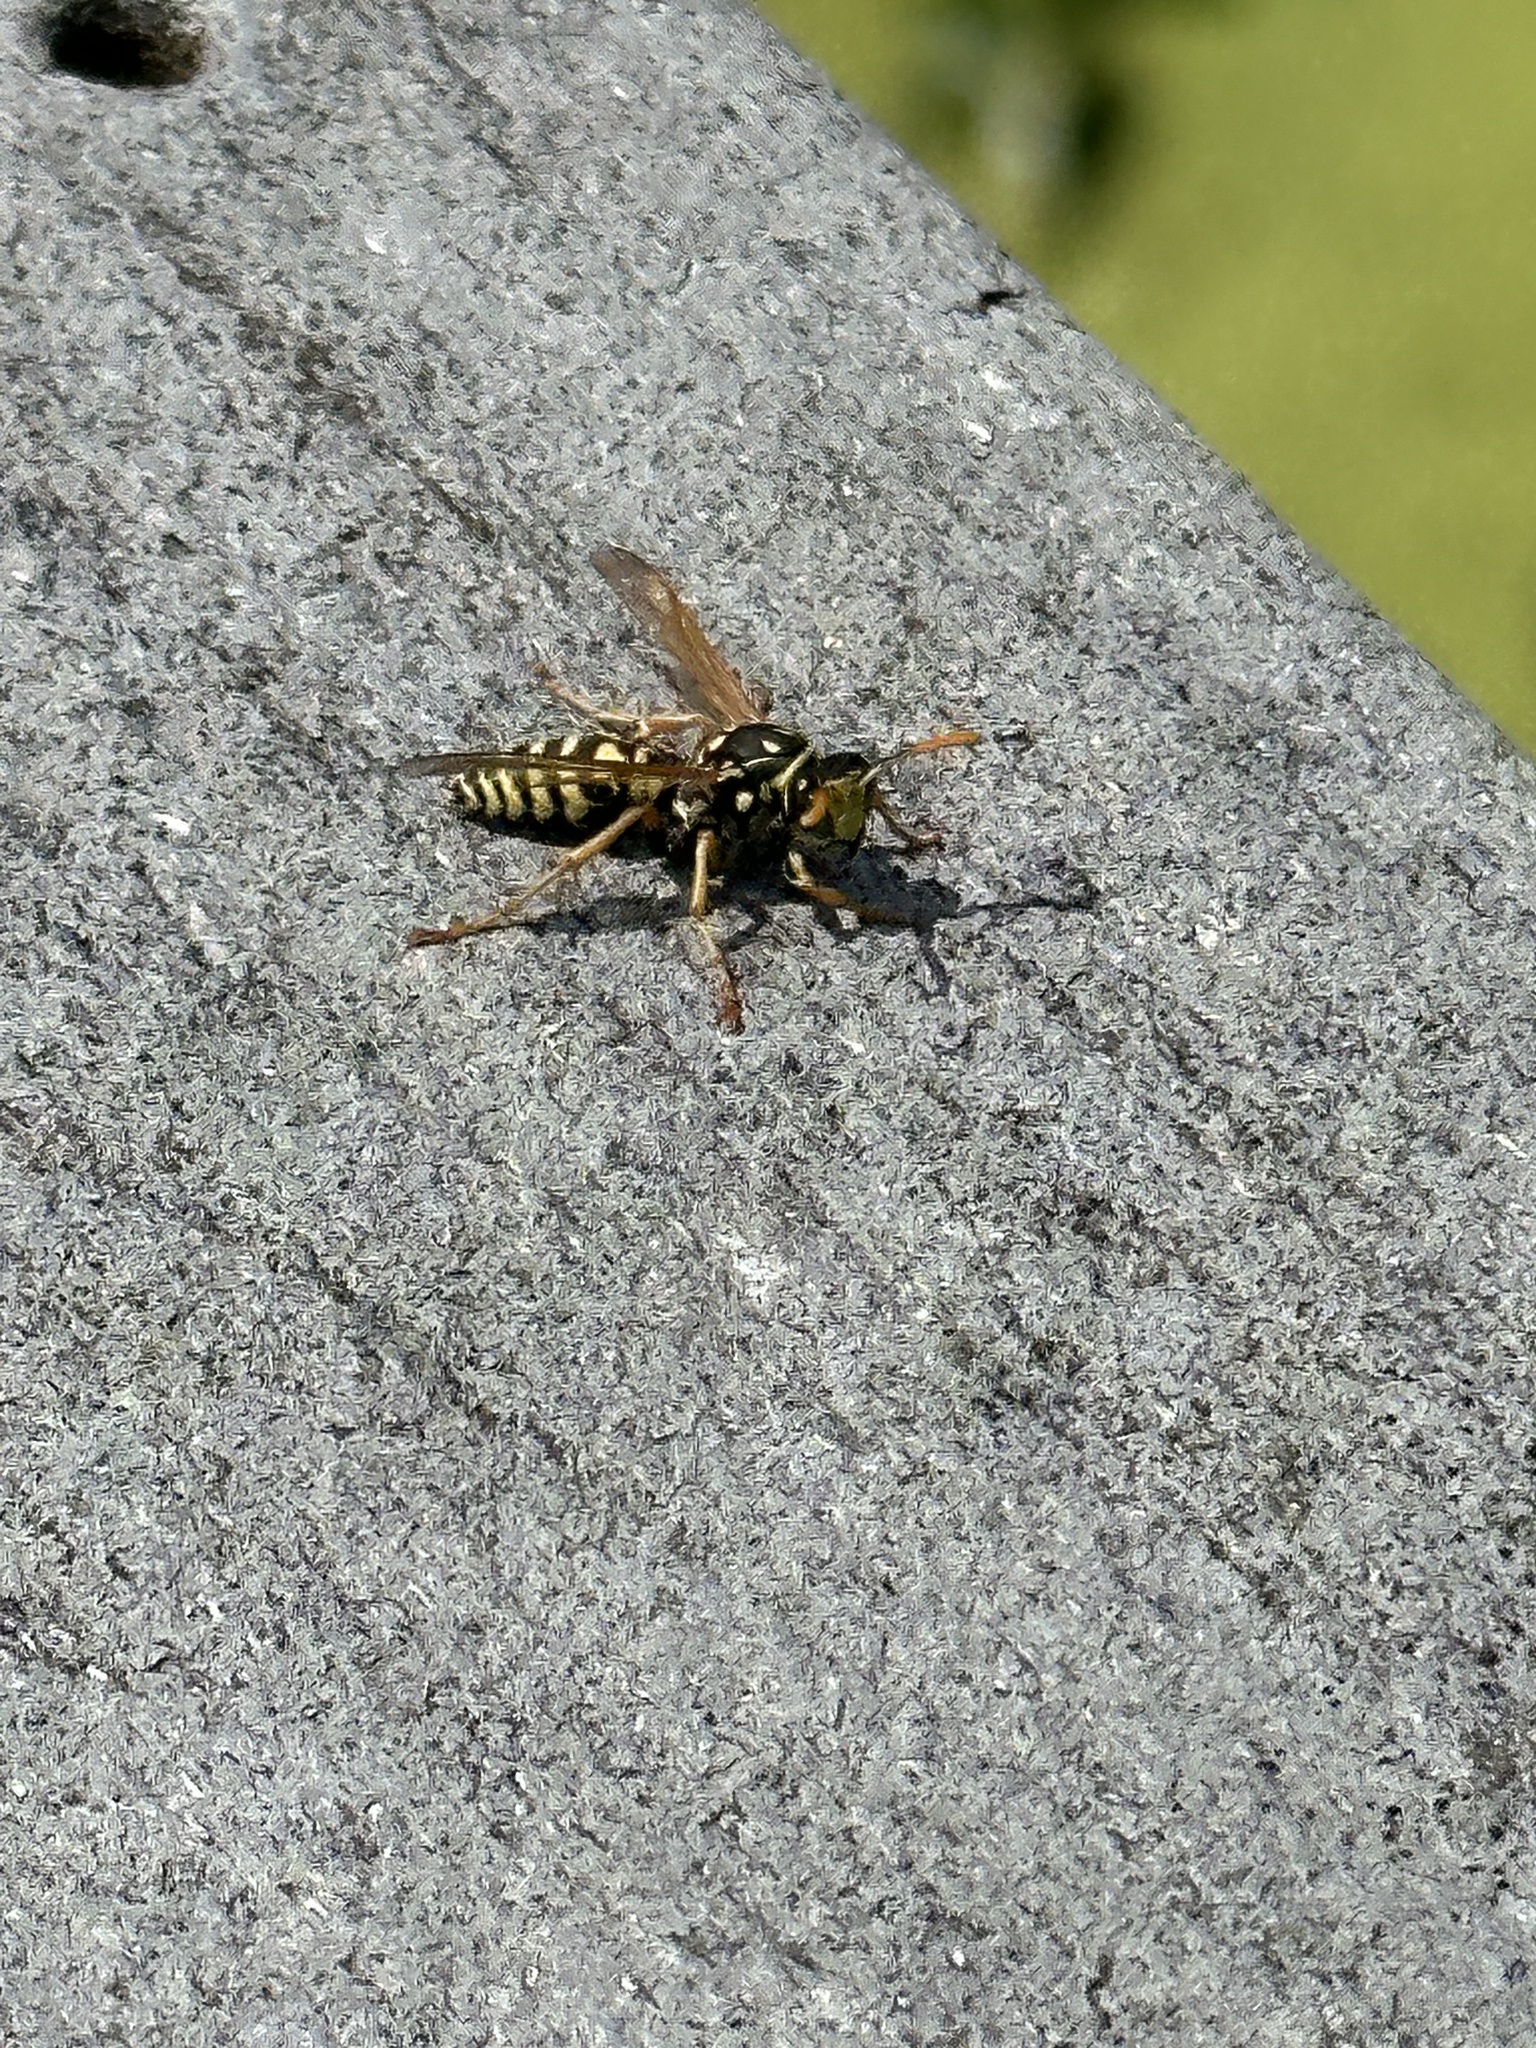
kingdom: Animalia
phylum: Arthropoda
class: Insecta
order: Hymenoptera
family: Eumenidae
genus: Polistes
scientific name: Polistes dominula
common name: Paper wasp
